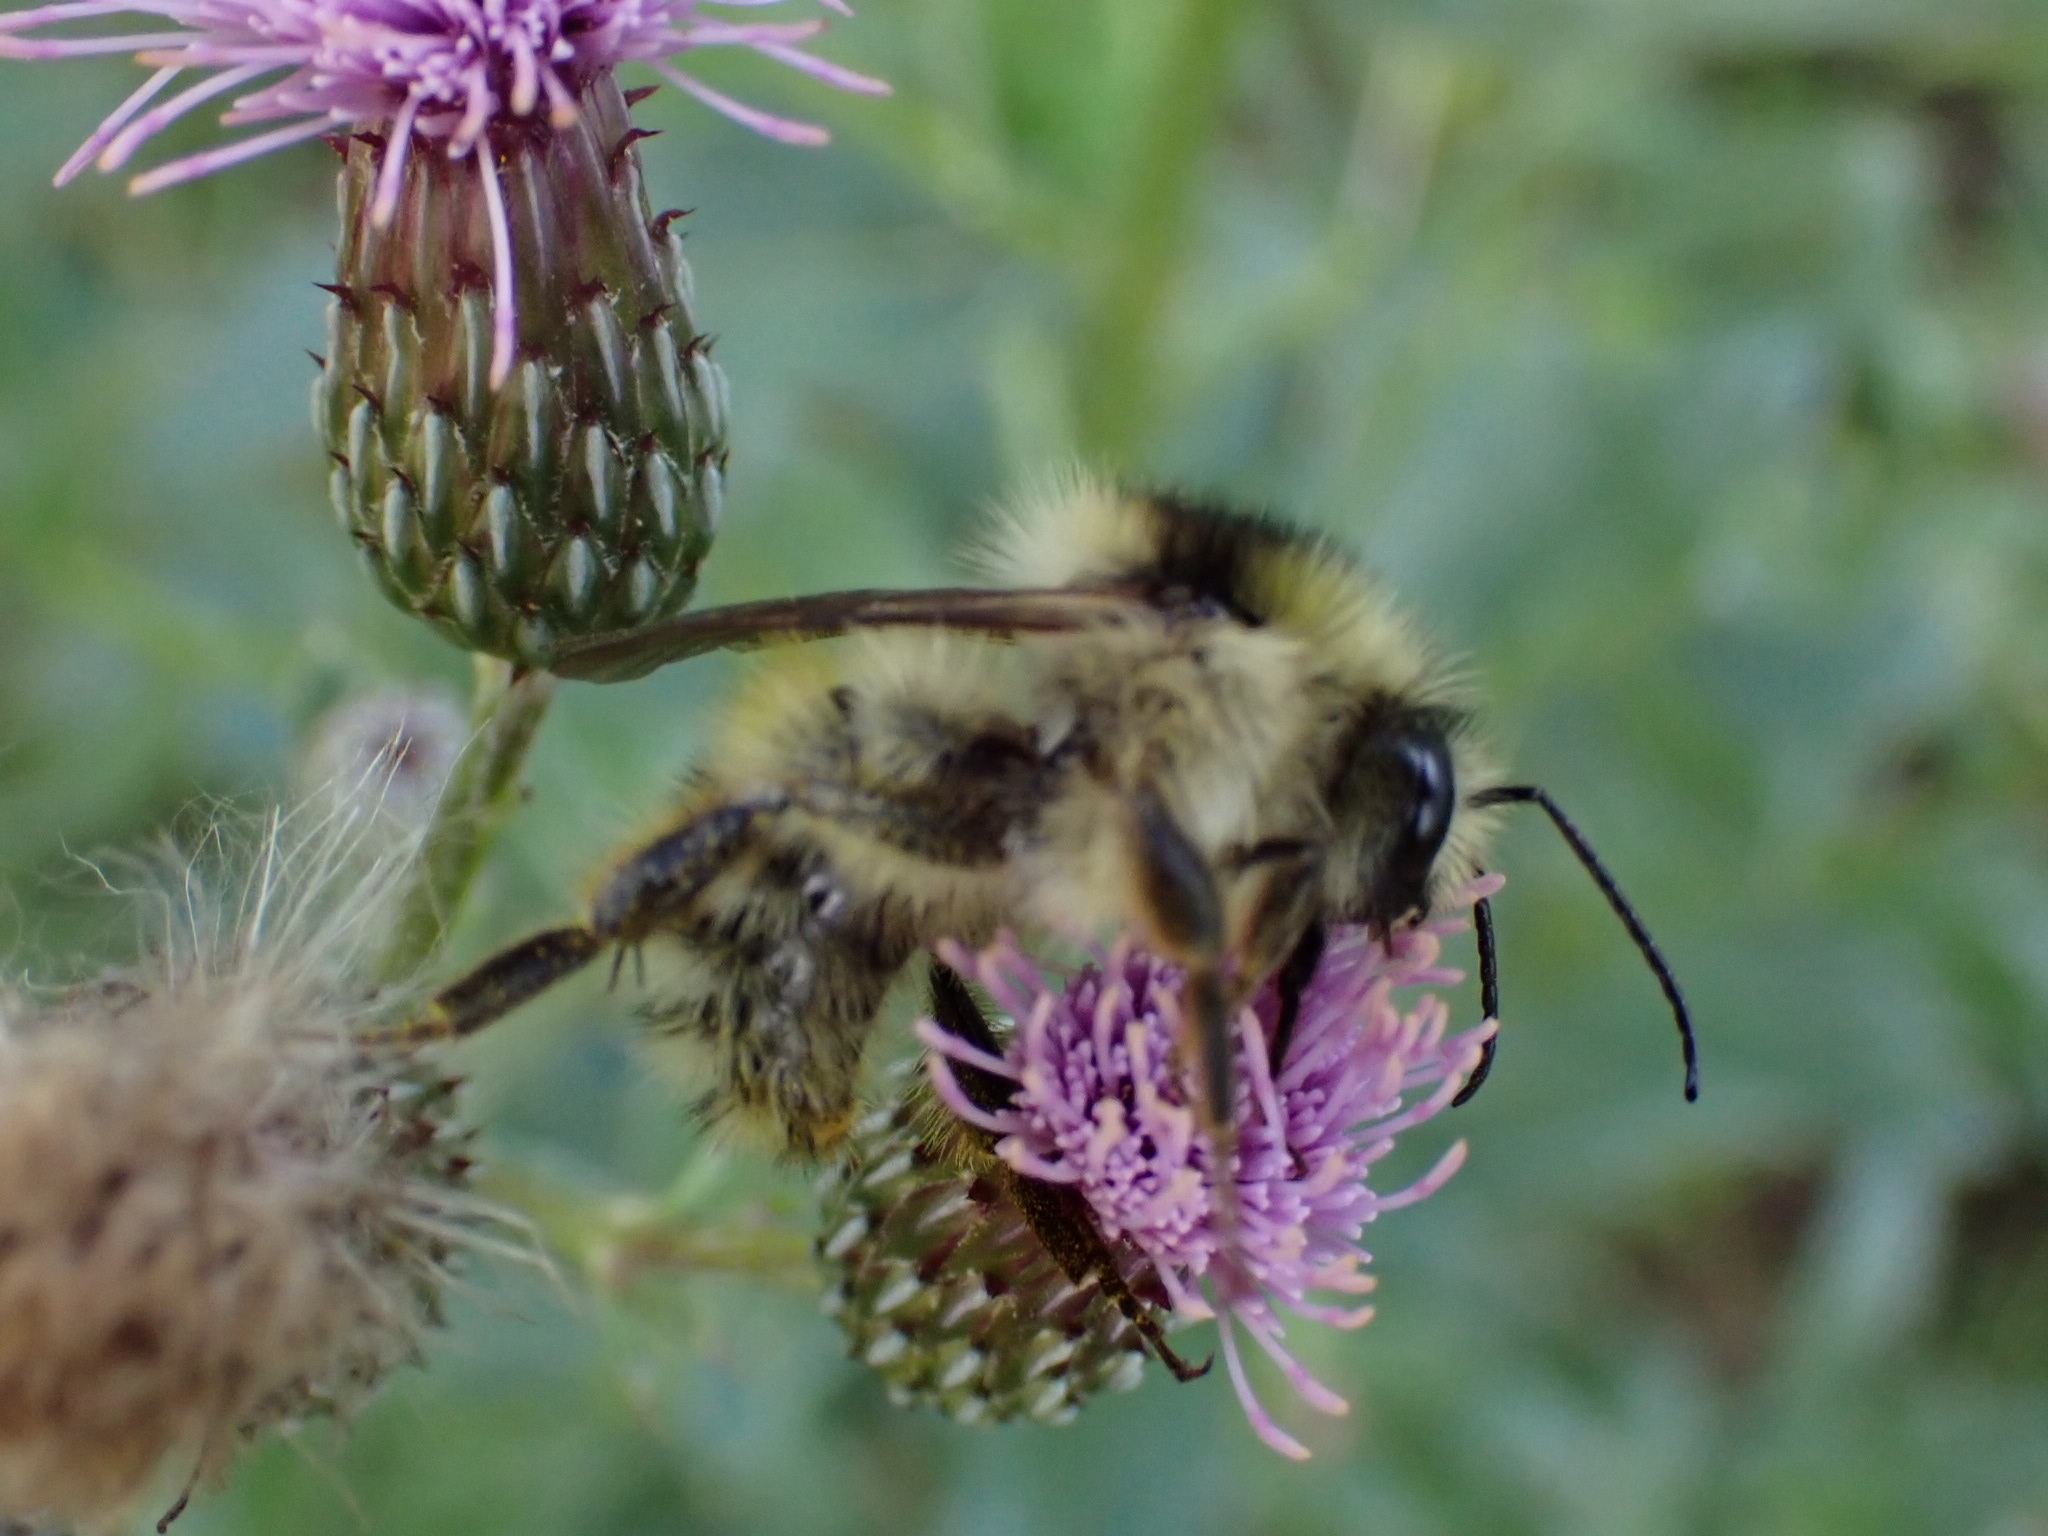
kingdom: Animalia
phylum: Arthropoda
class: Insecta
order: Hymenoptera
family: Apidae
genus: Bombus
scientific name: Bombus veteranus
